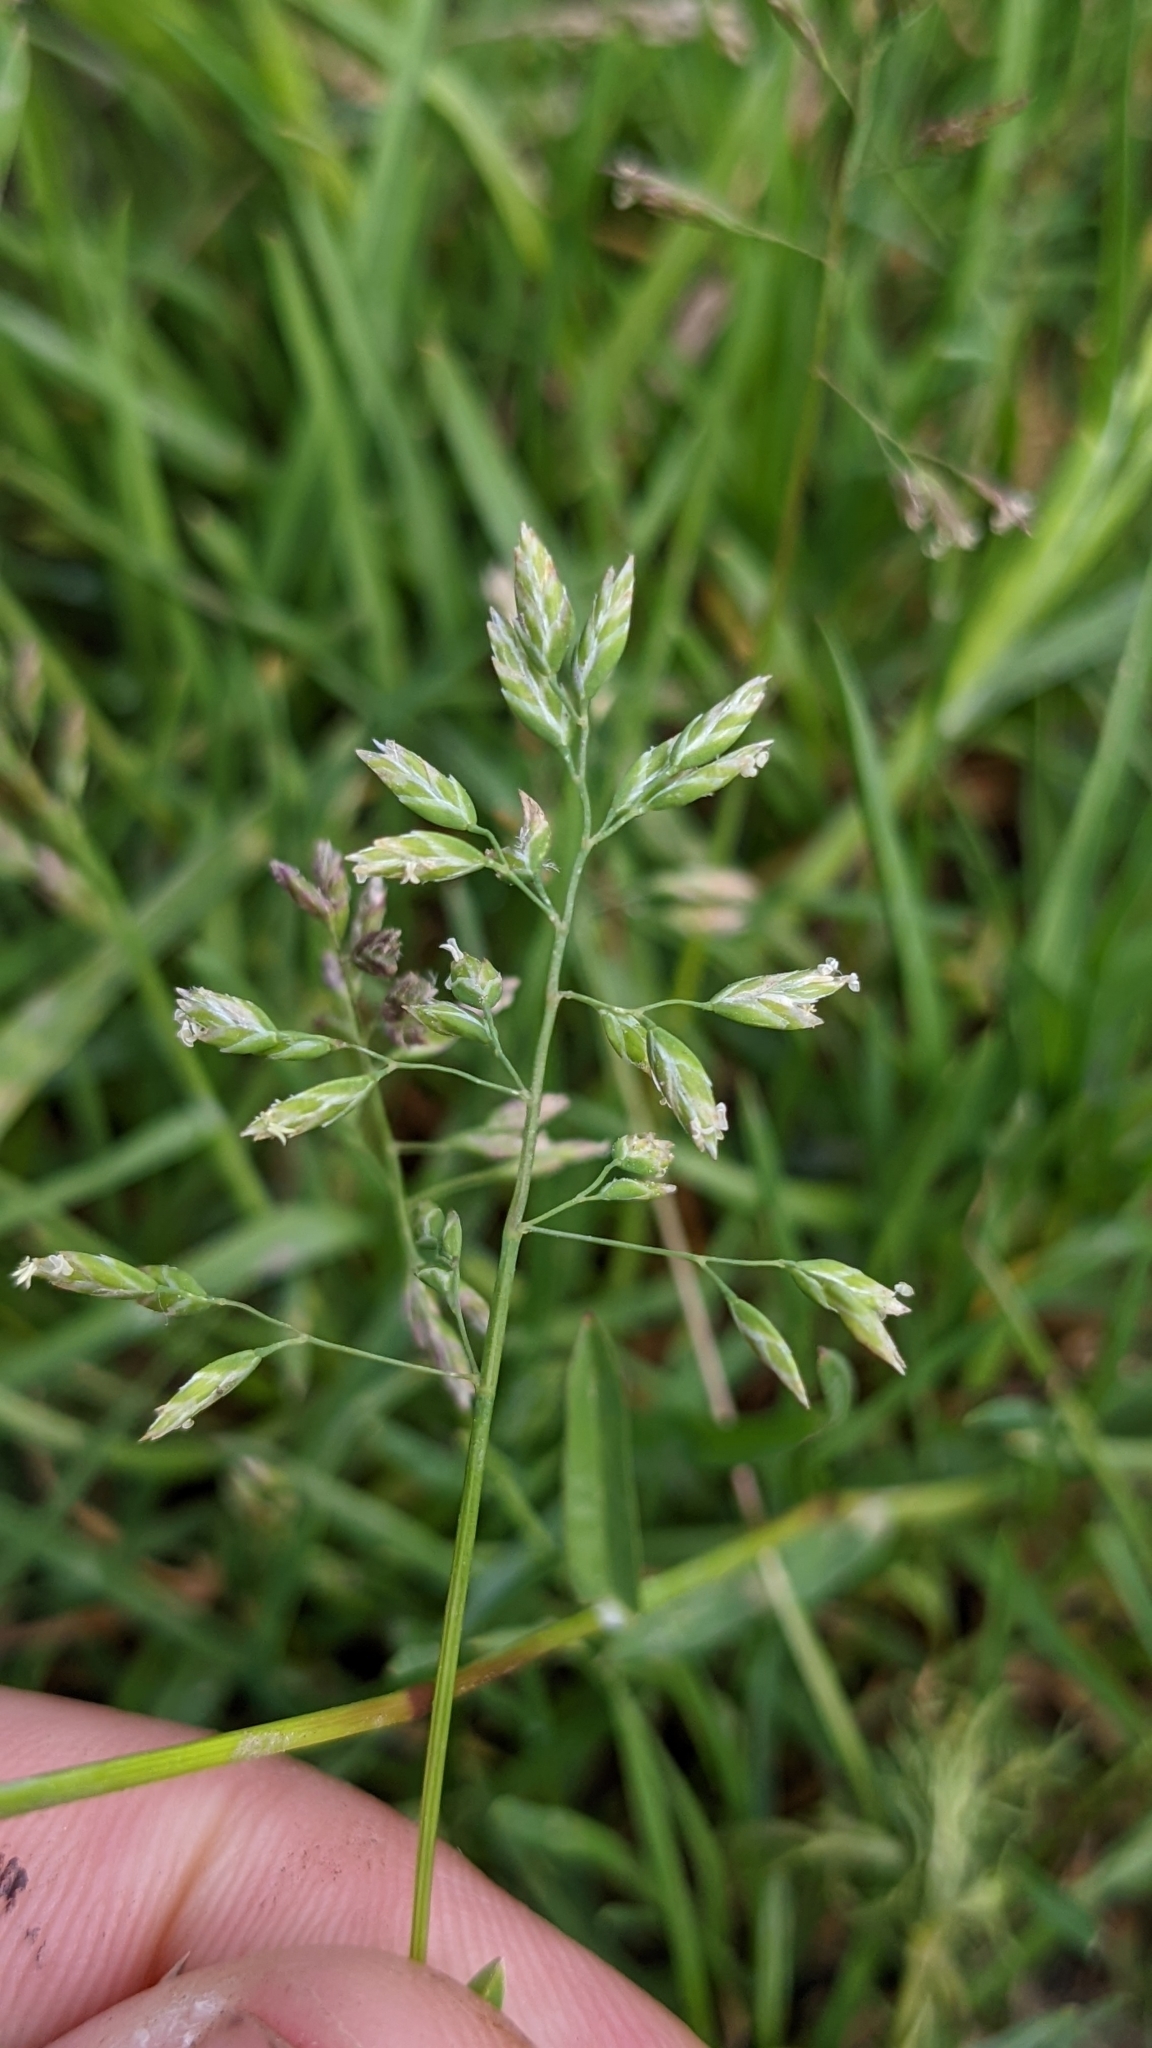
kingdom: Plantae
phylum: Tracheophyta
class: Liliopsida
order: Poales
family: Poaceae
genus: Poa
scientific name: Poa annua
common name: Annual bluegrass
